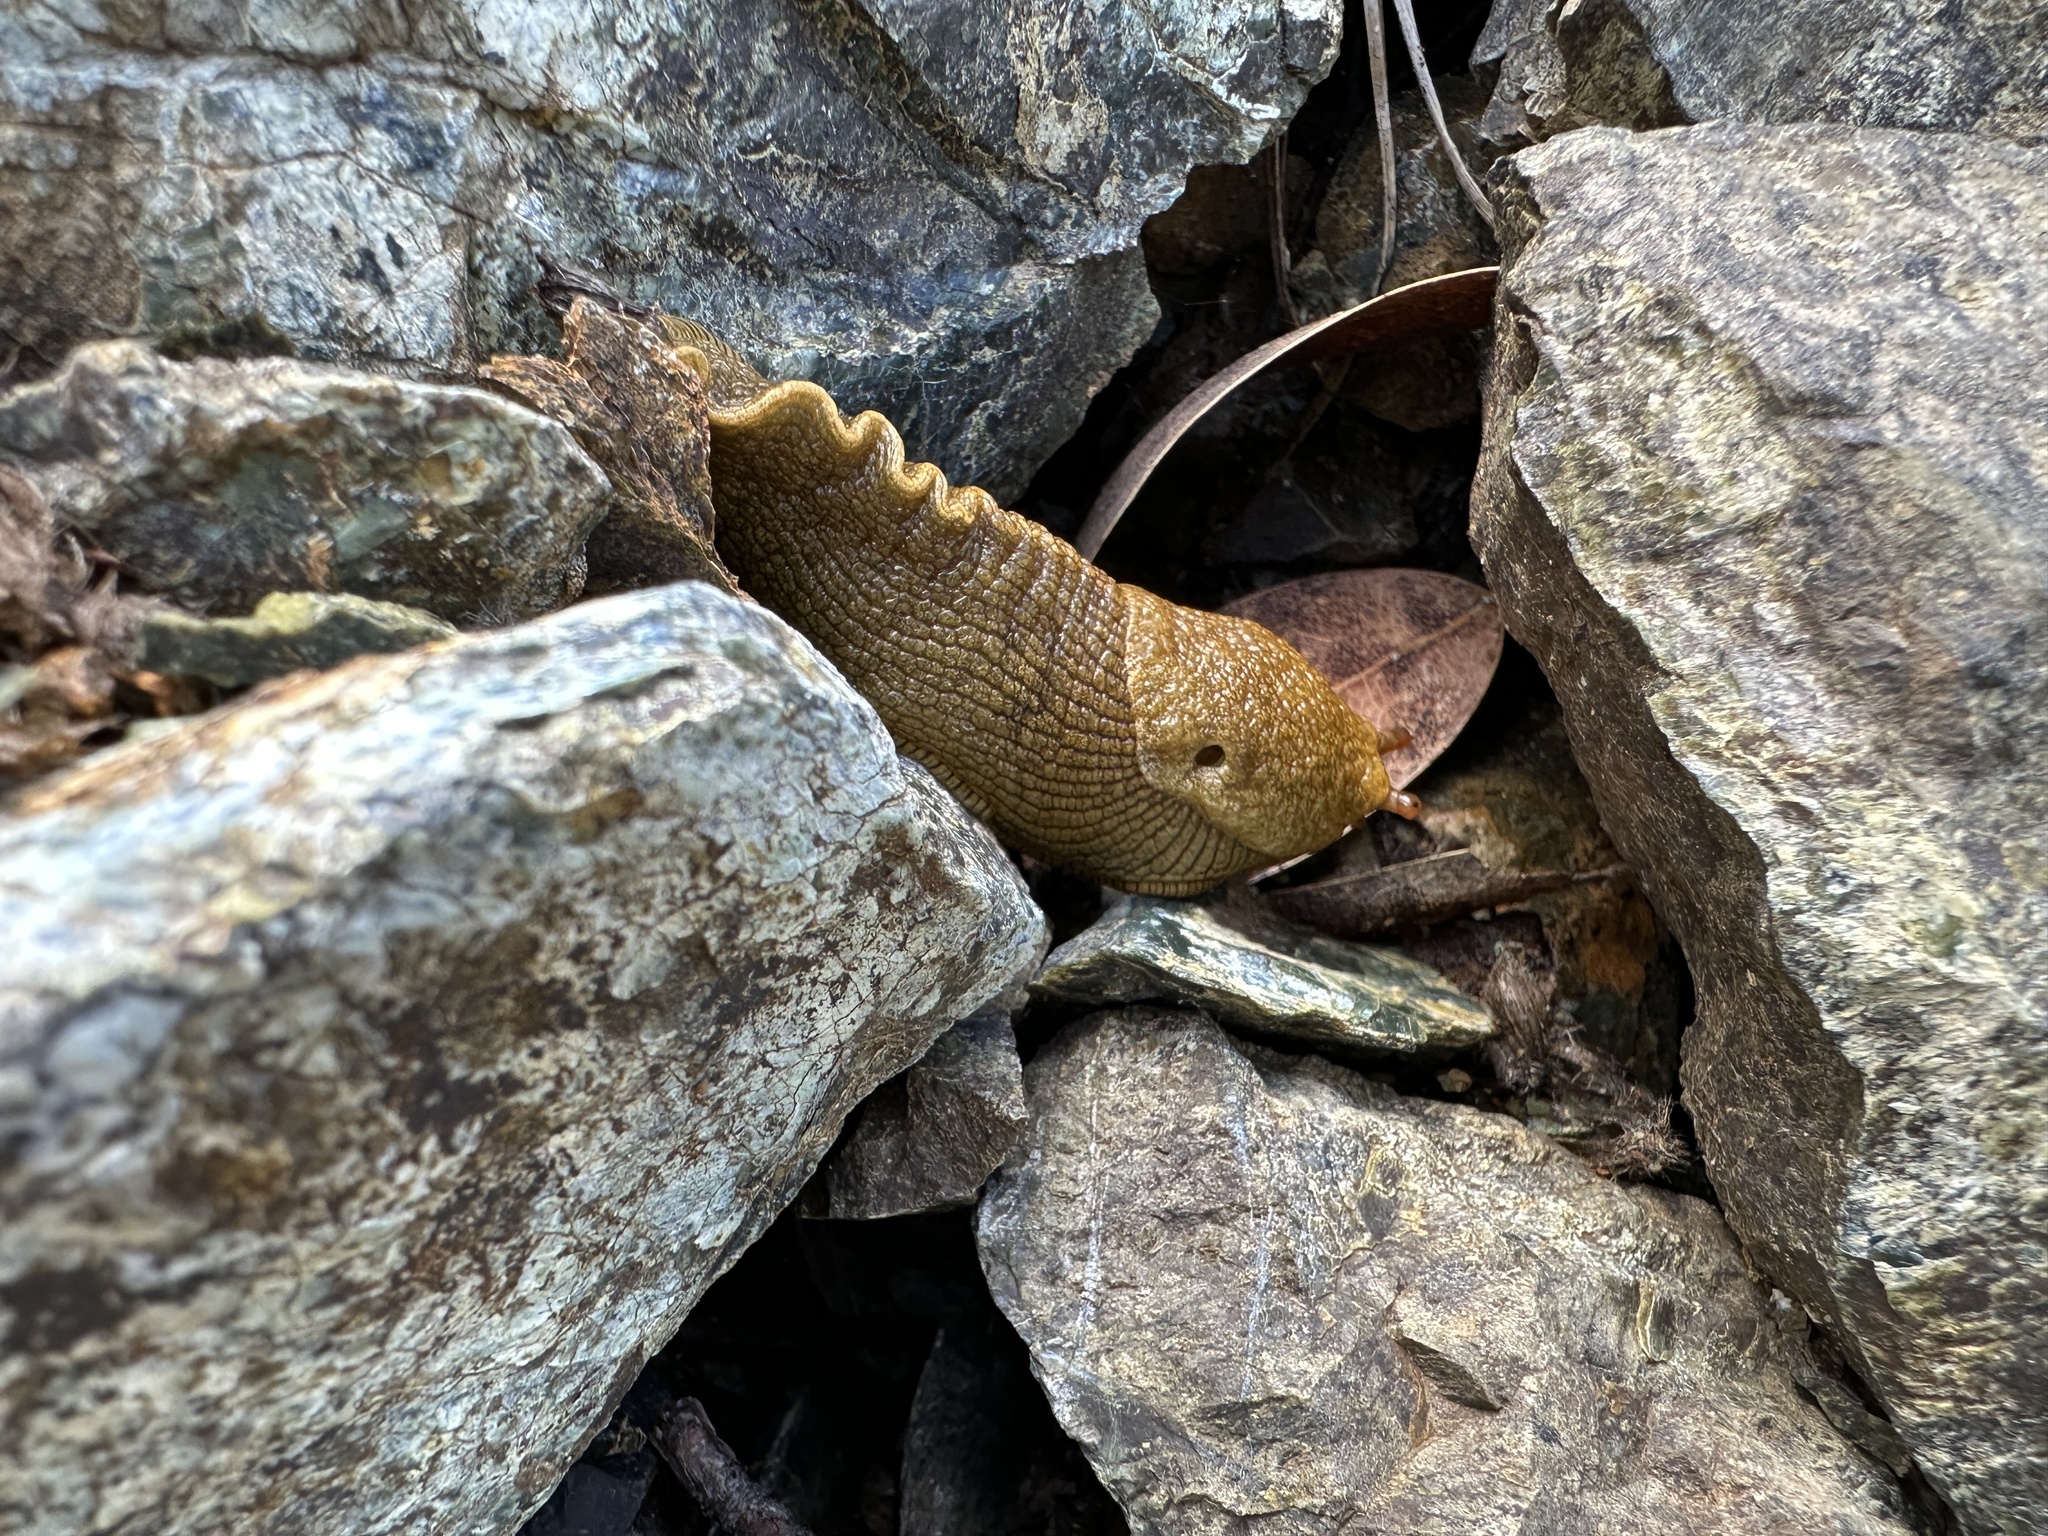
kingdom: Animalia
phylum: Mollusca
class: Gastropoda
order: Stylommatophora
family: Ariolimacidae
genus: Ariolimax
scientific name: Ariolimax columbianus
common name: Pacific banana slug
